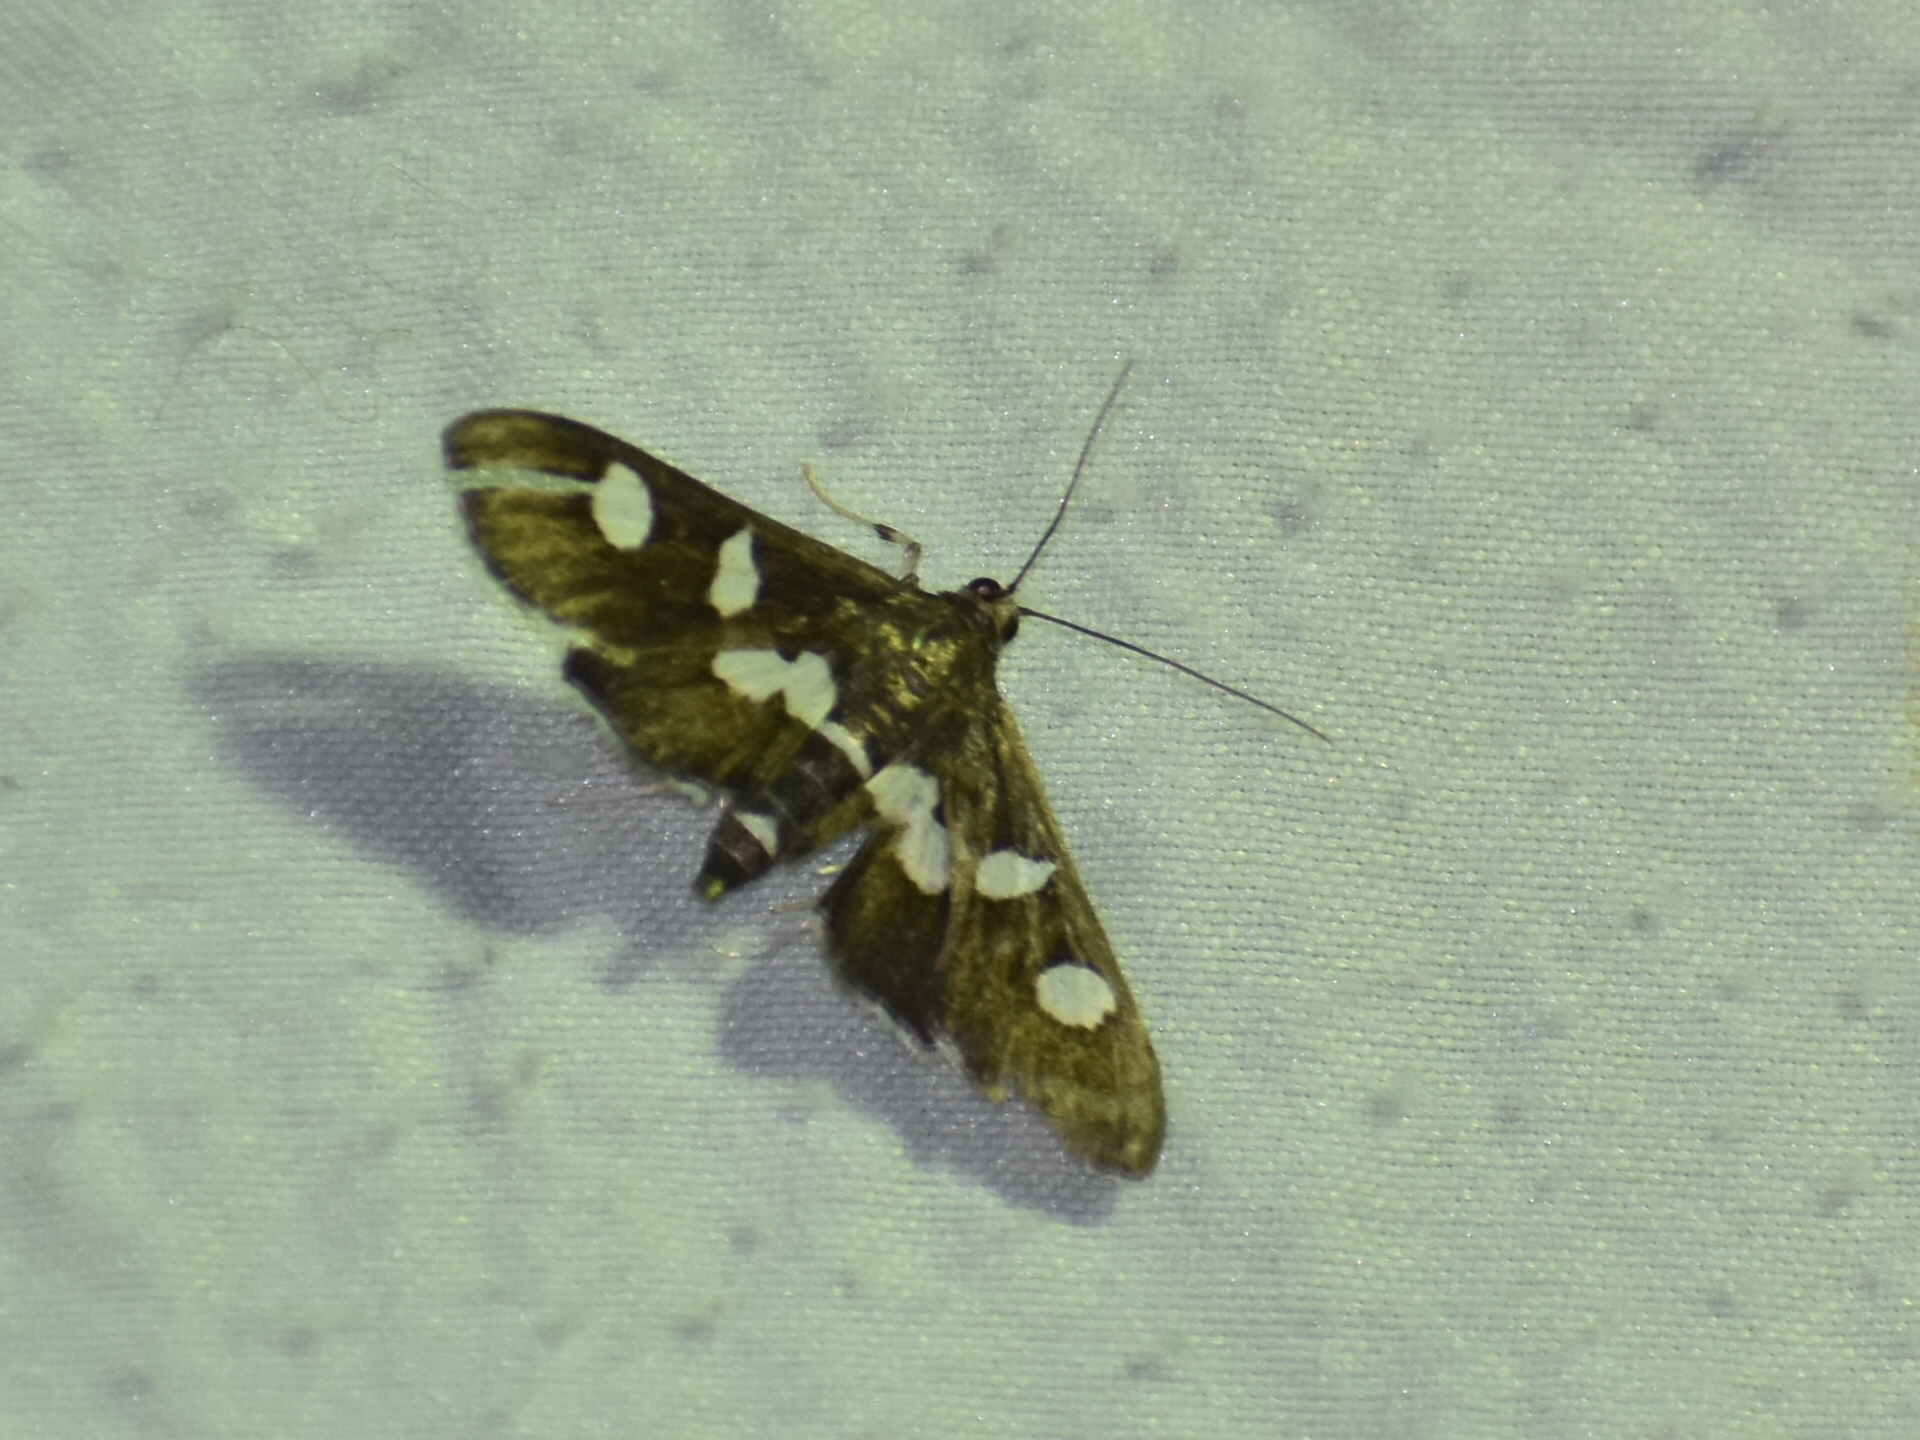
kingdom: Animalia
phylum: Arthropoda
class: Insecta
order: Lepidoptera
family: Crambidae
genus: Desmia
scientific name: Desmia funeralis
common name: Grape leaf folder moth
